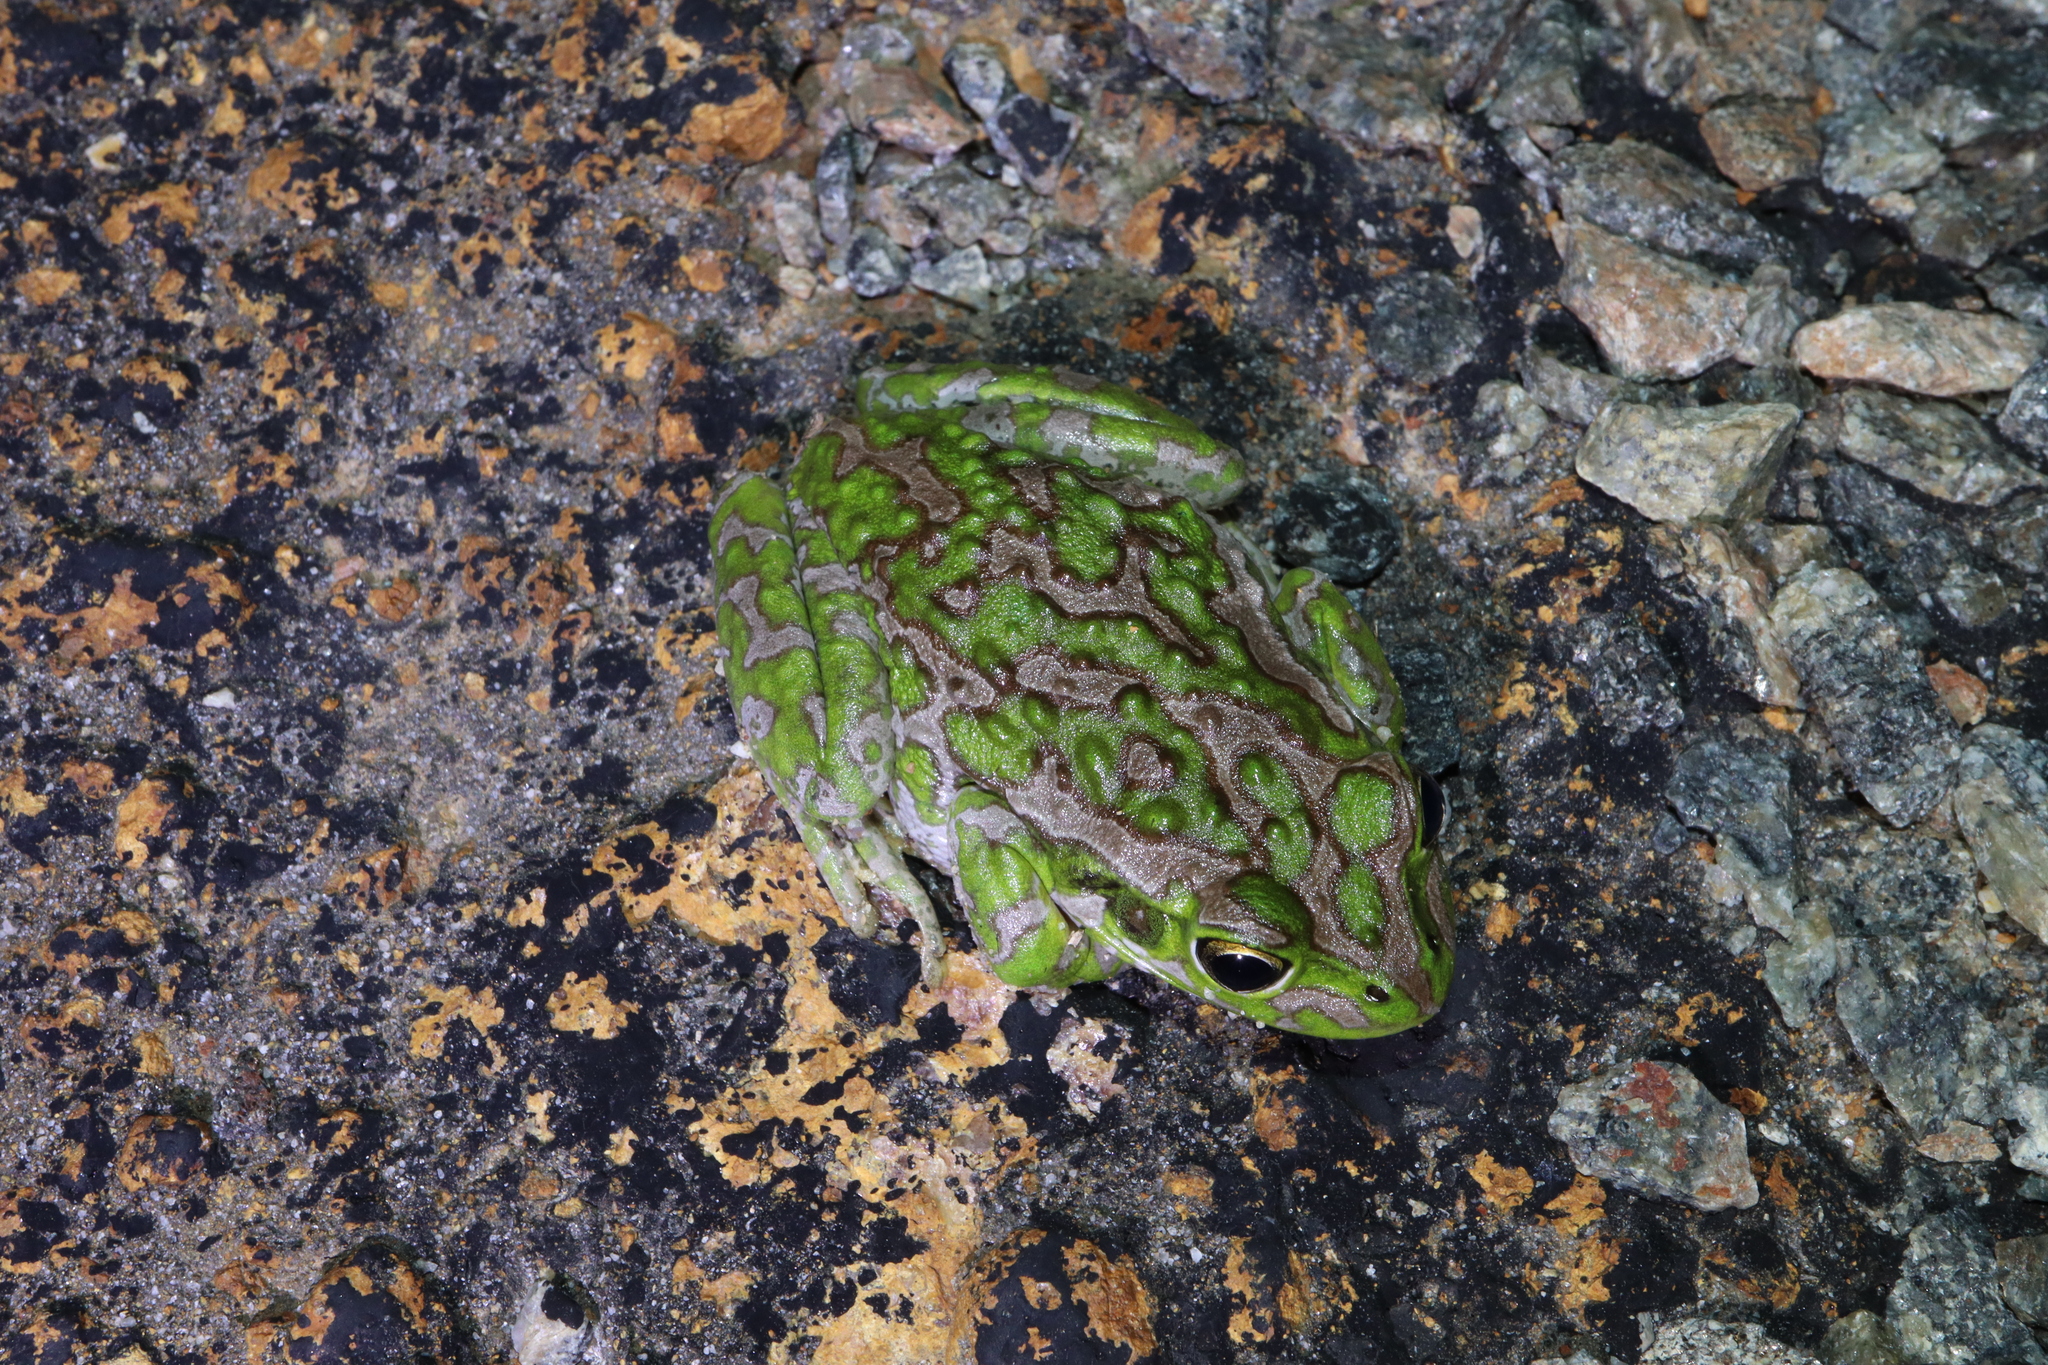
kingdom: Animalia
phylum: Chordata
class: Amphibia
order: Anura
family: Pelodryadidae
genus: Ranoidea
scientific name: Ranoidea cyclorhynchus
